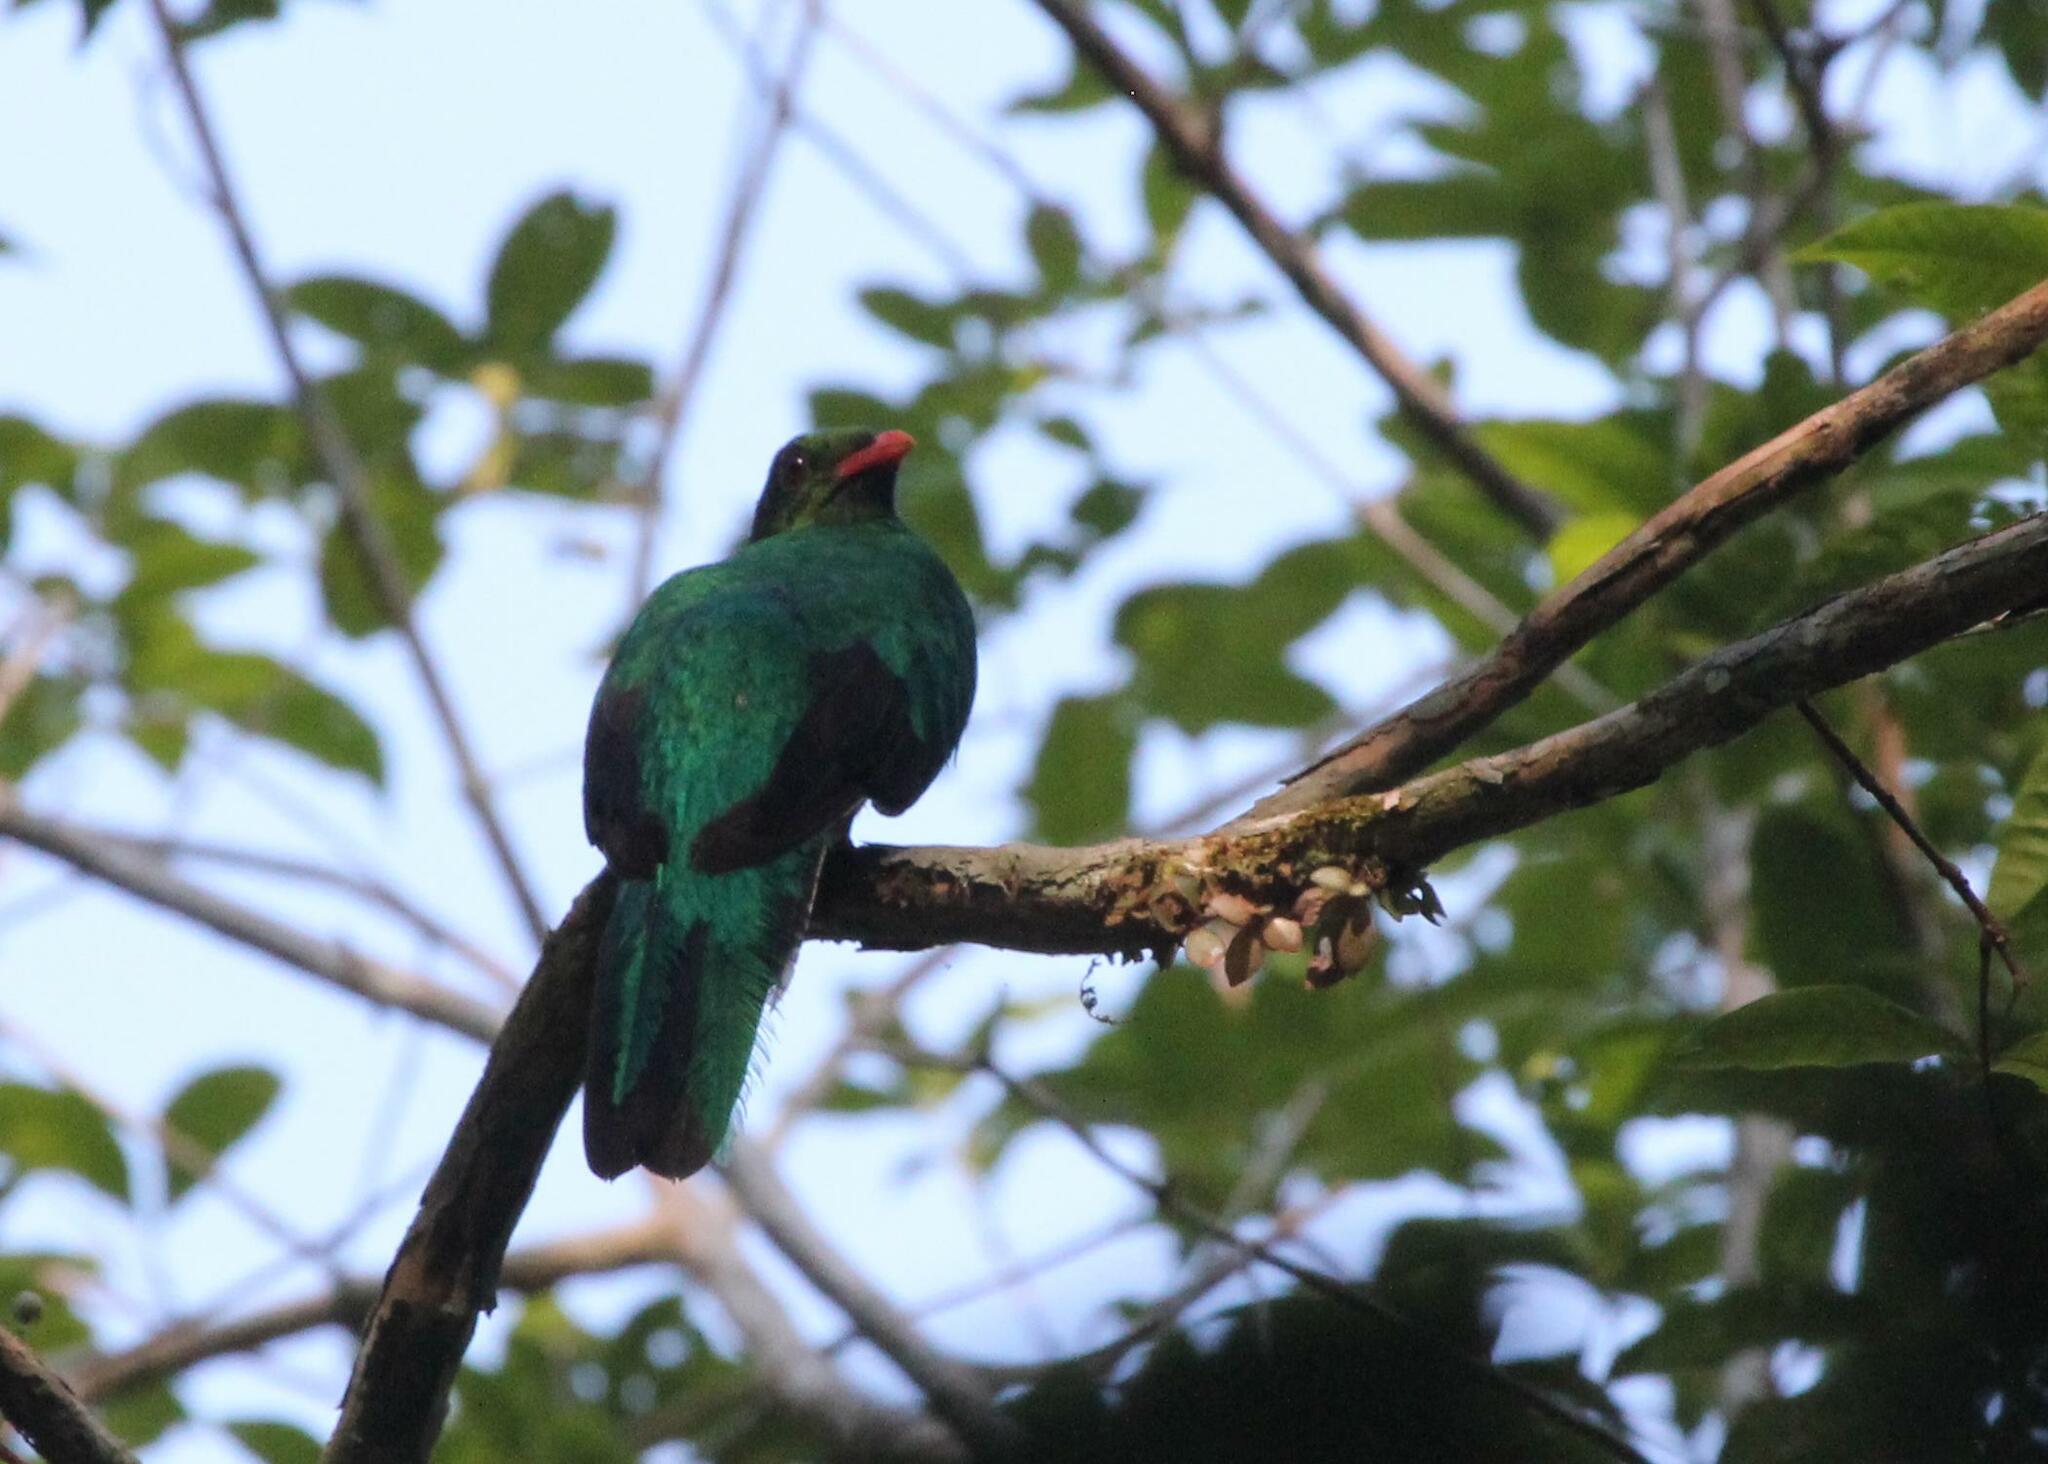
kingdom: Animalia
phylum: Chordata
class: Aves
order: Trogoniformes
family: Trogonidae
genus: Pharomachrus
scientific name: Pharomachrus pavoninus
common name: Pavonine quetzal
